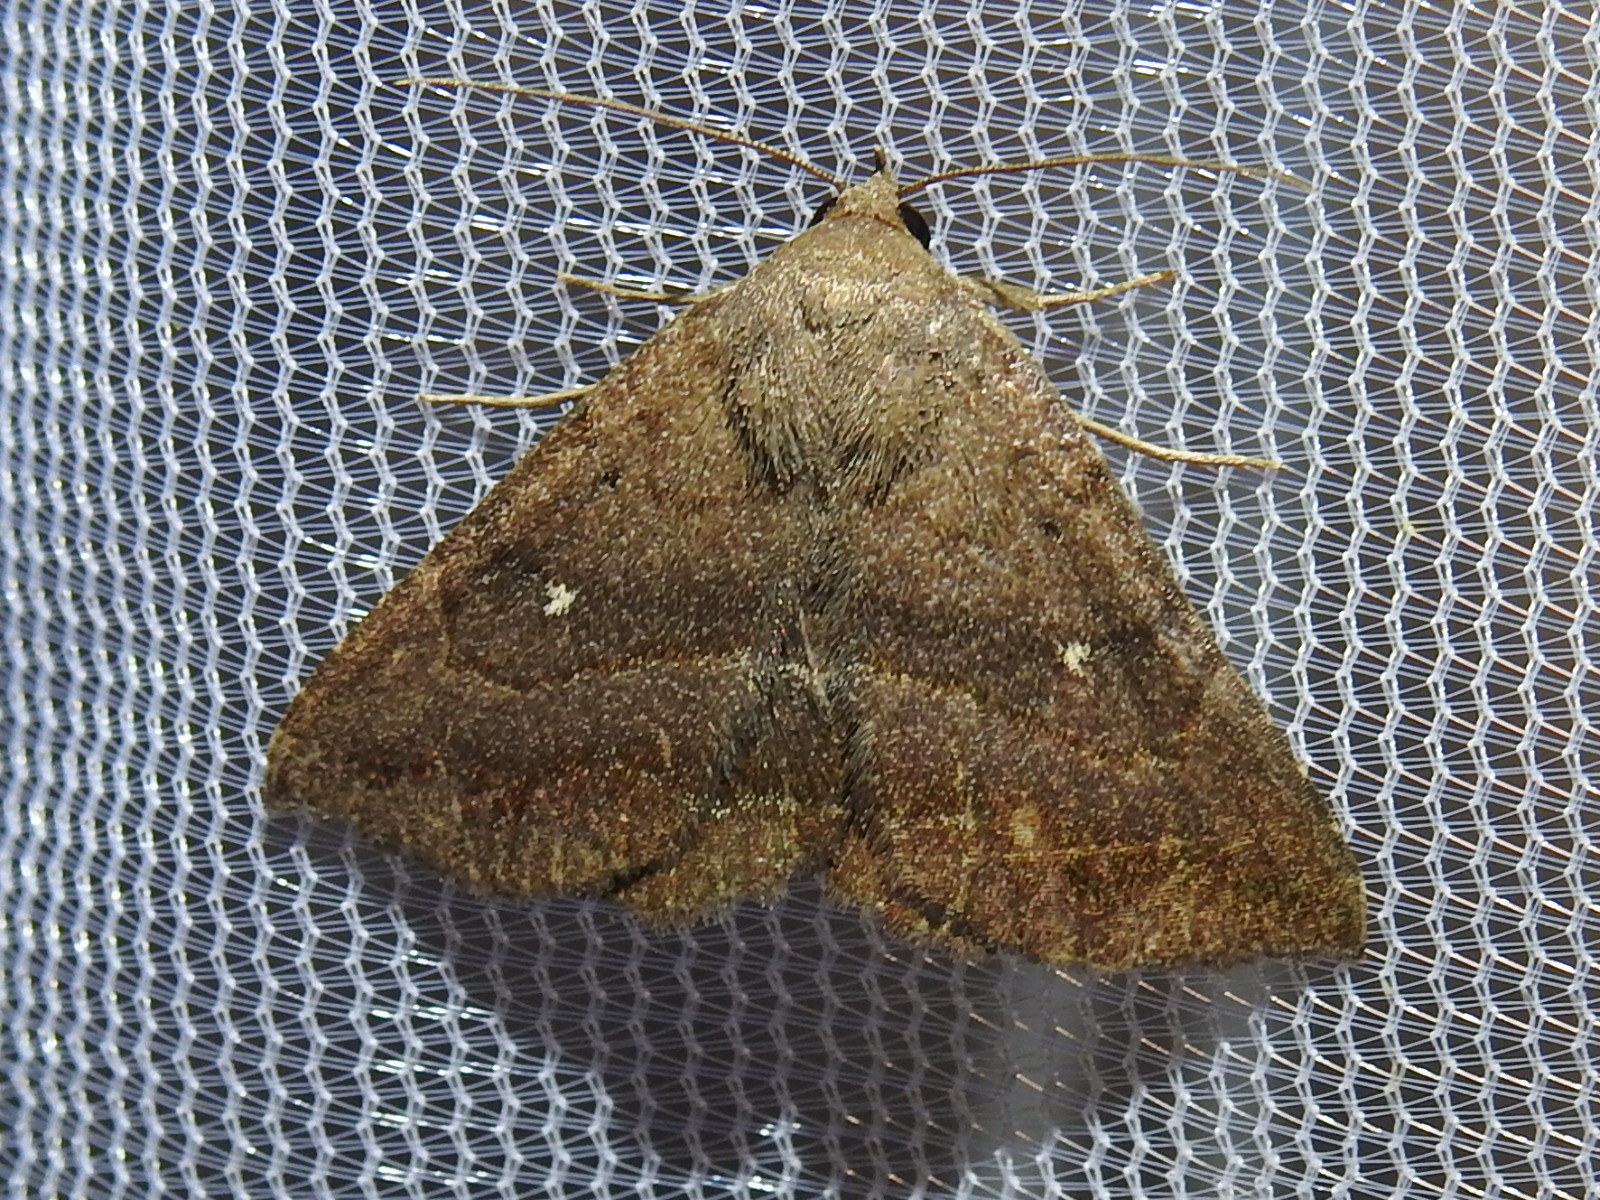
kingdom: Animalia
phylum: Arthropoda
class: Insecta
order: Lepidoptera
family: Erebidae
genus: Lesmone
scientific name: Lesmone detrahens
